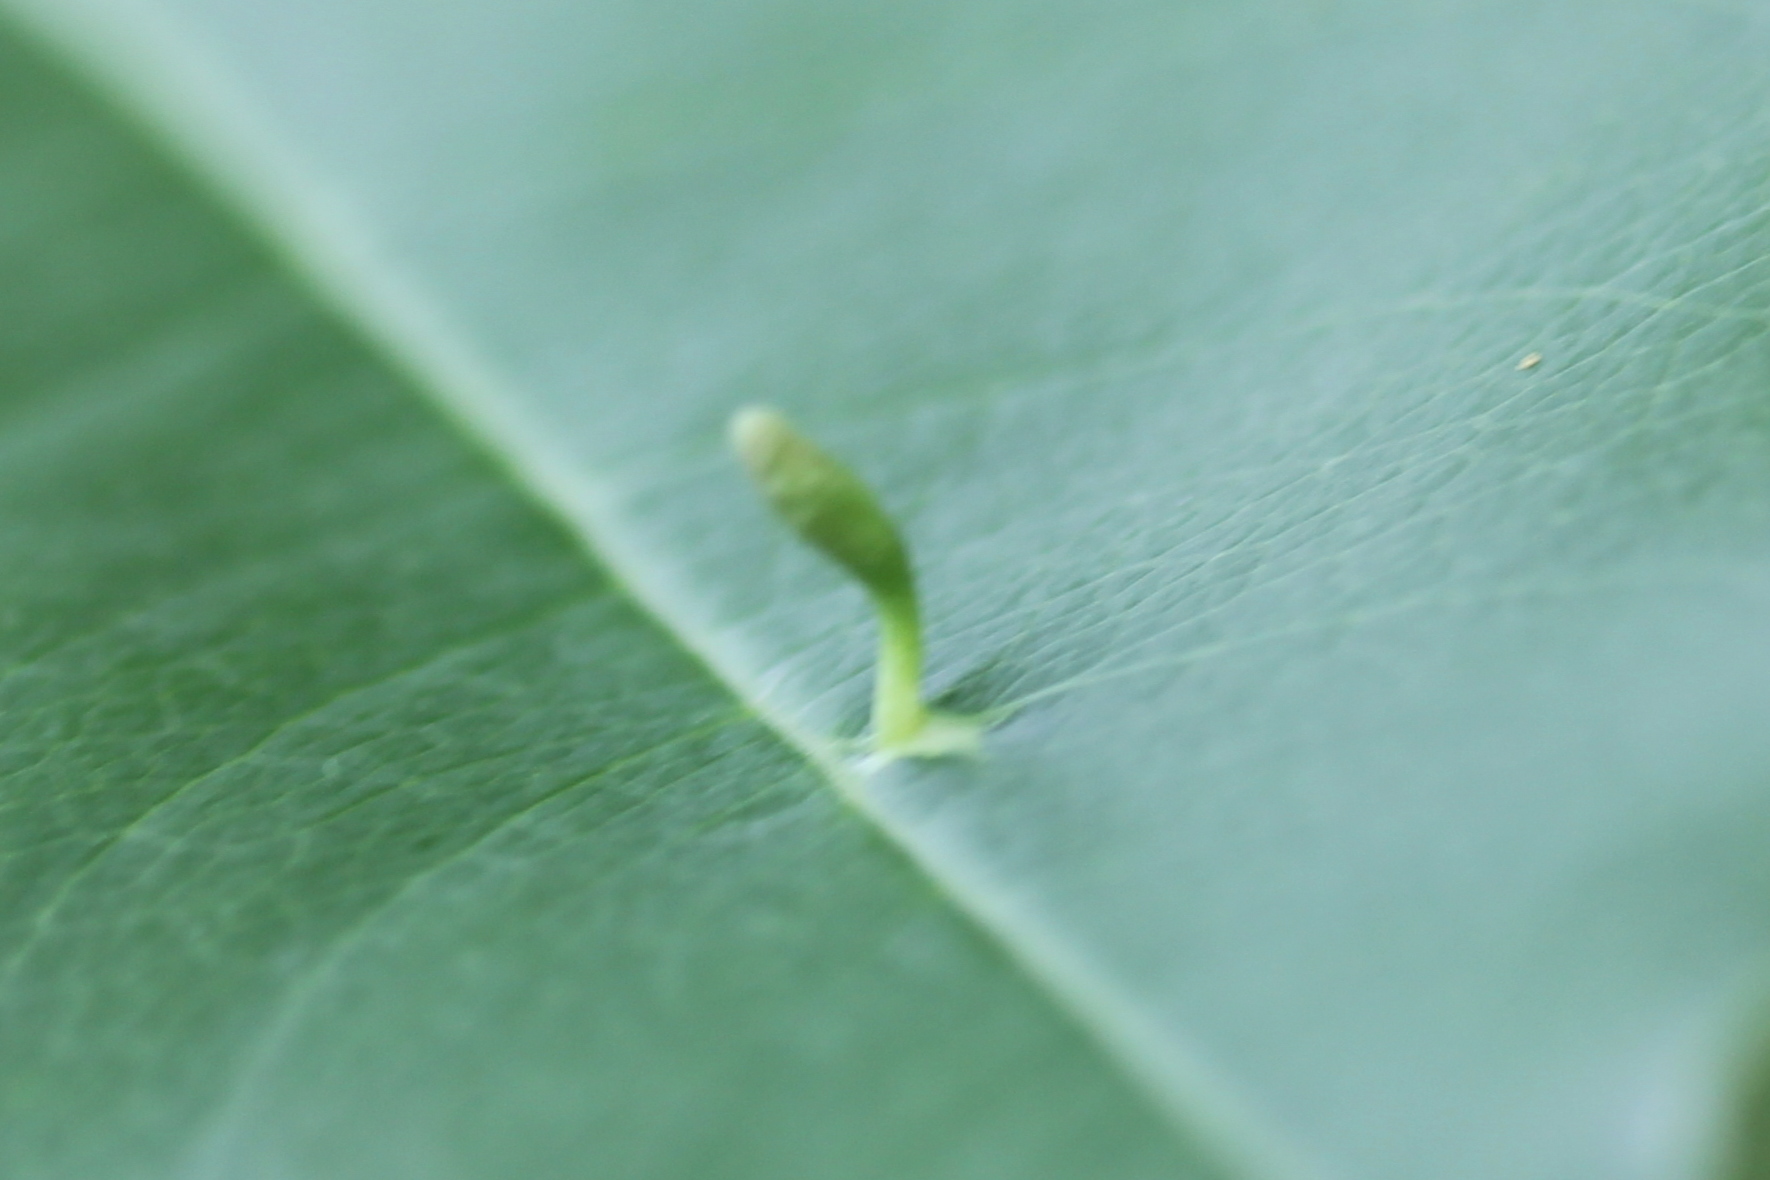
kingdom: Animalia
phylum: Arthropoda
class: Arachnida
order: Trombidiformes
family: Eriophyidae
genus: Eriophyes
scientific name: Eriophyes
